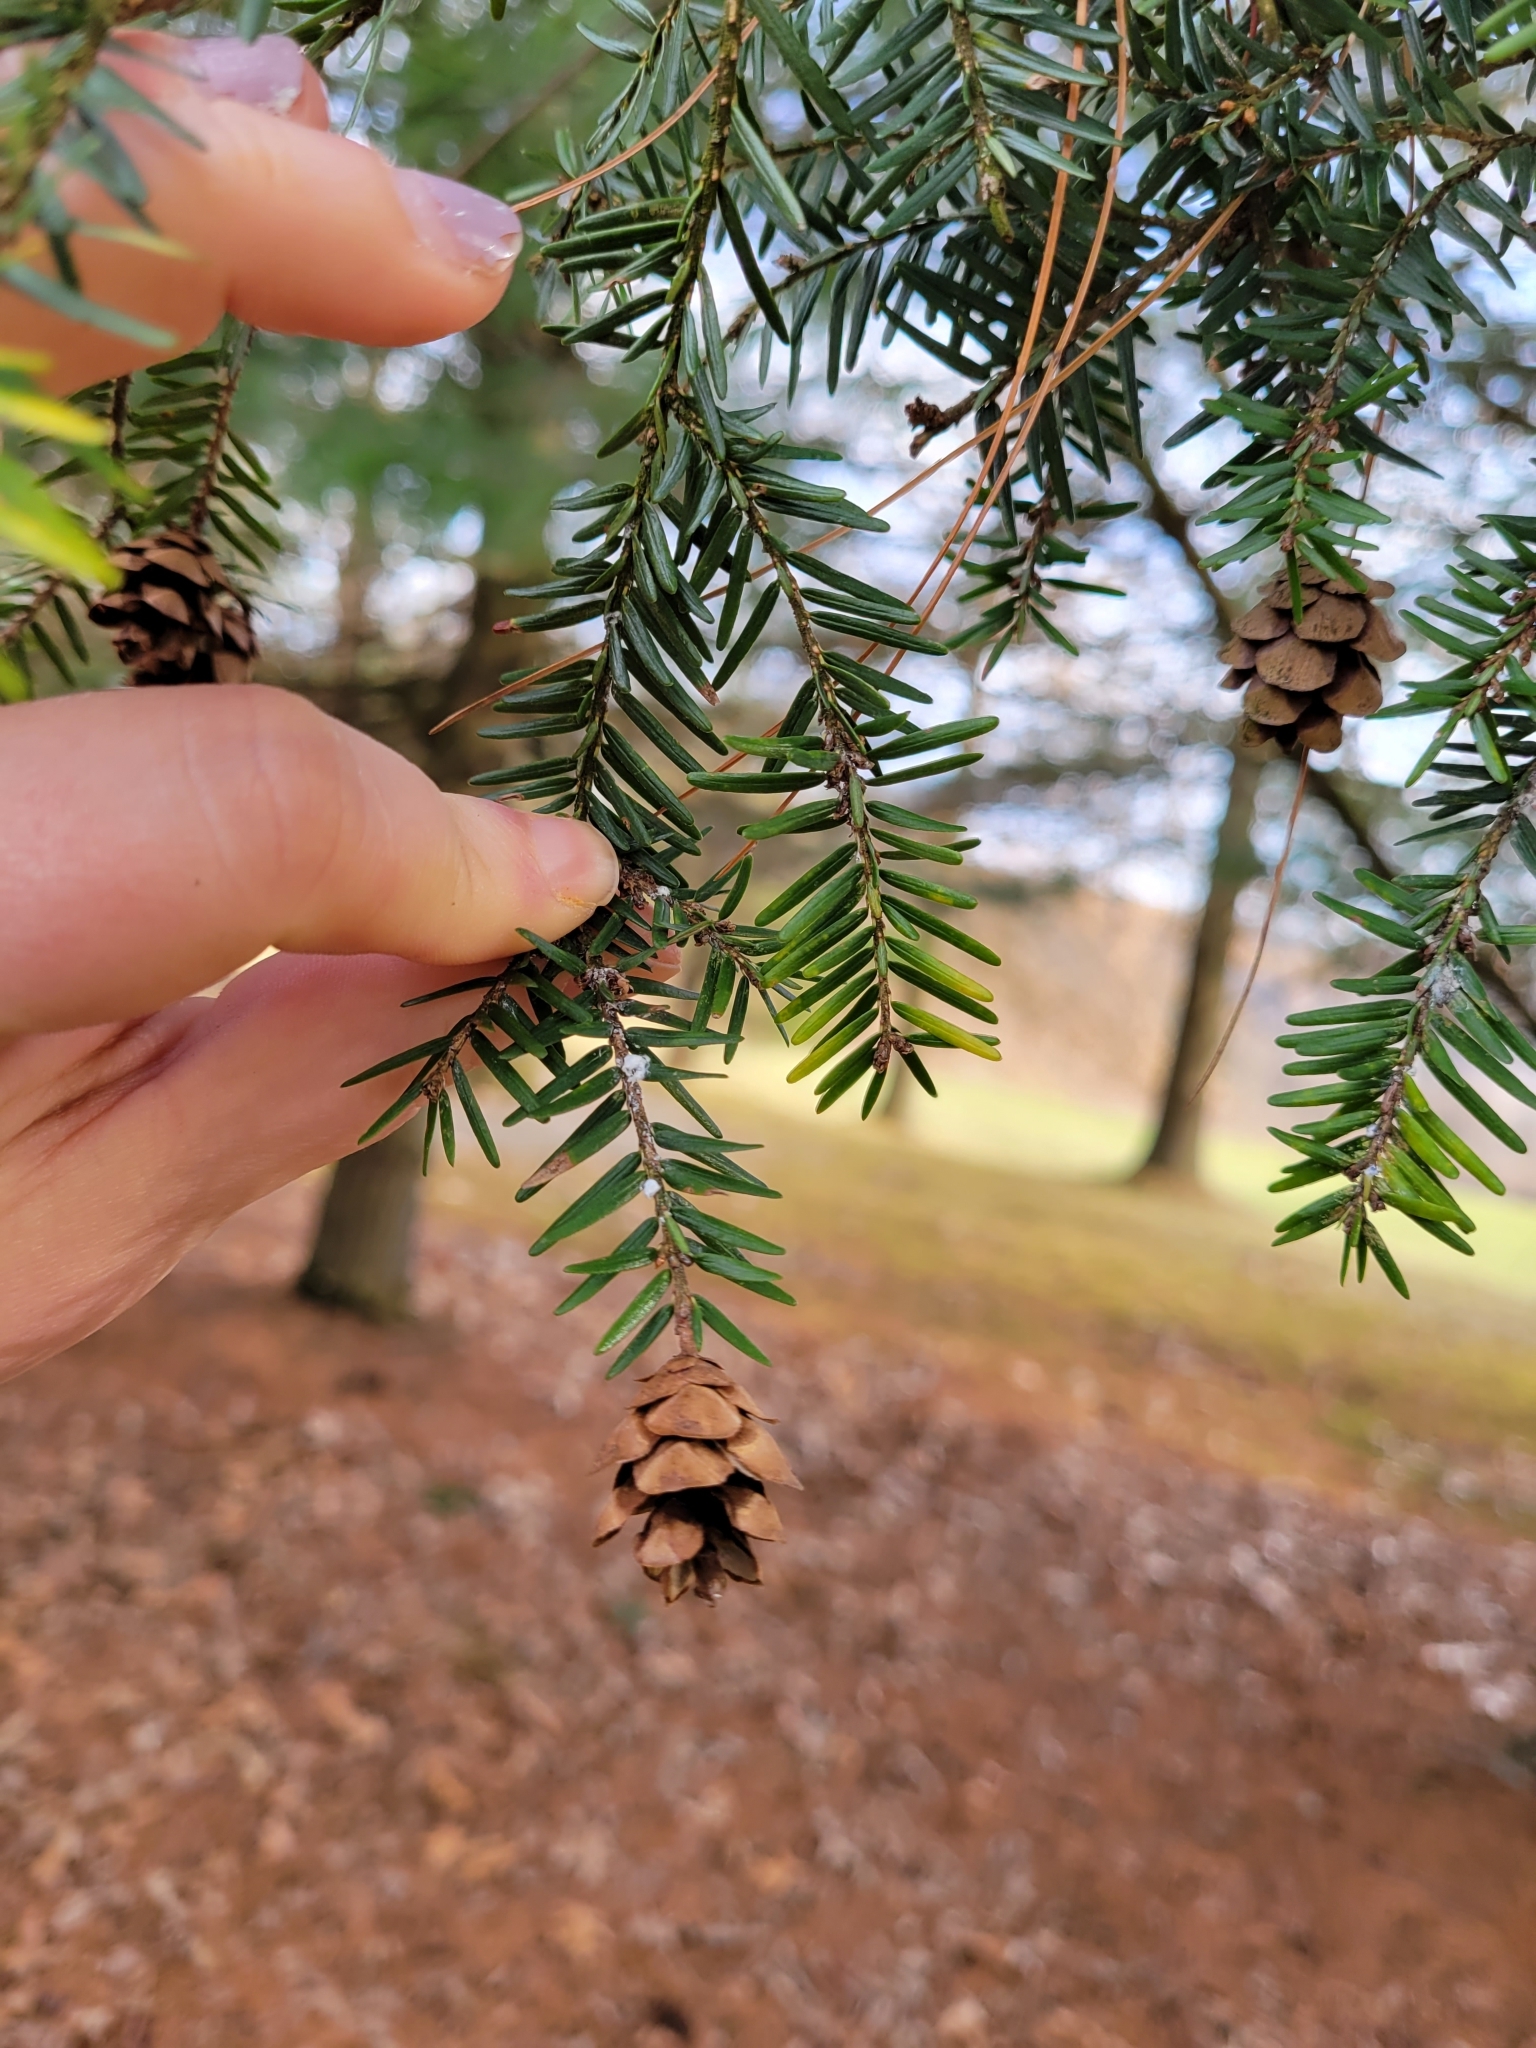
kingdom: Animalia
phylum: Arthropoda
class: Insecta
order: Hemiptera
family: Adelgidae
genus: Adelges
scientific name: Adelges tsugae
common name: Hemlock woolly adelgid
